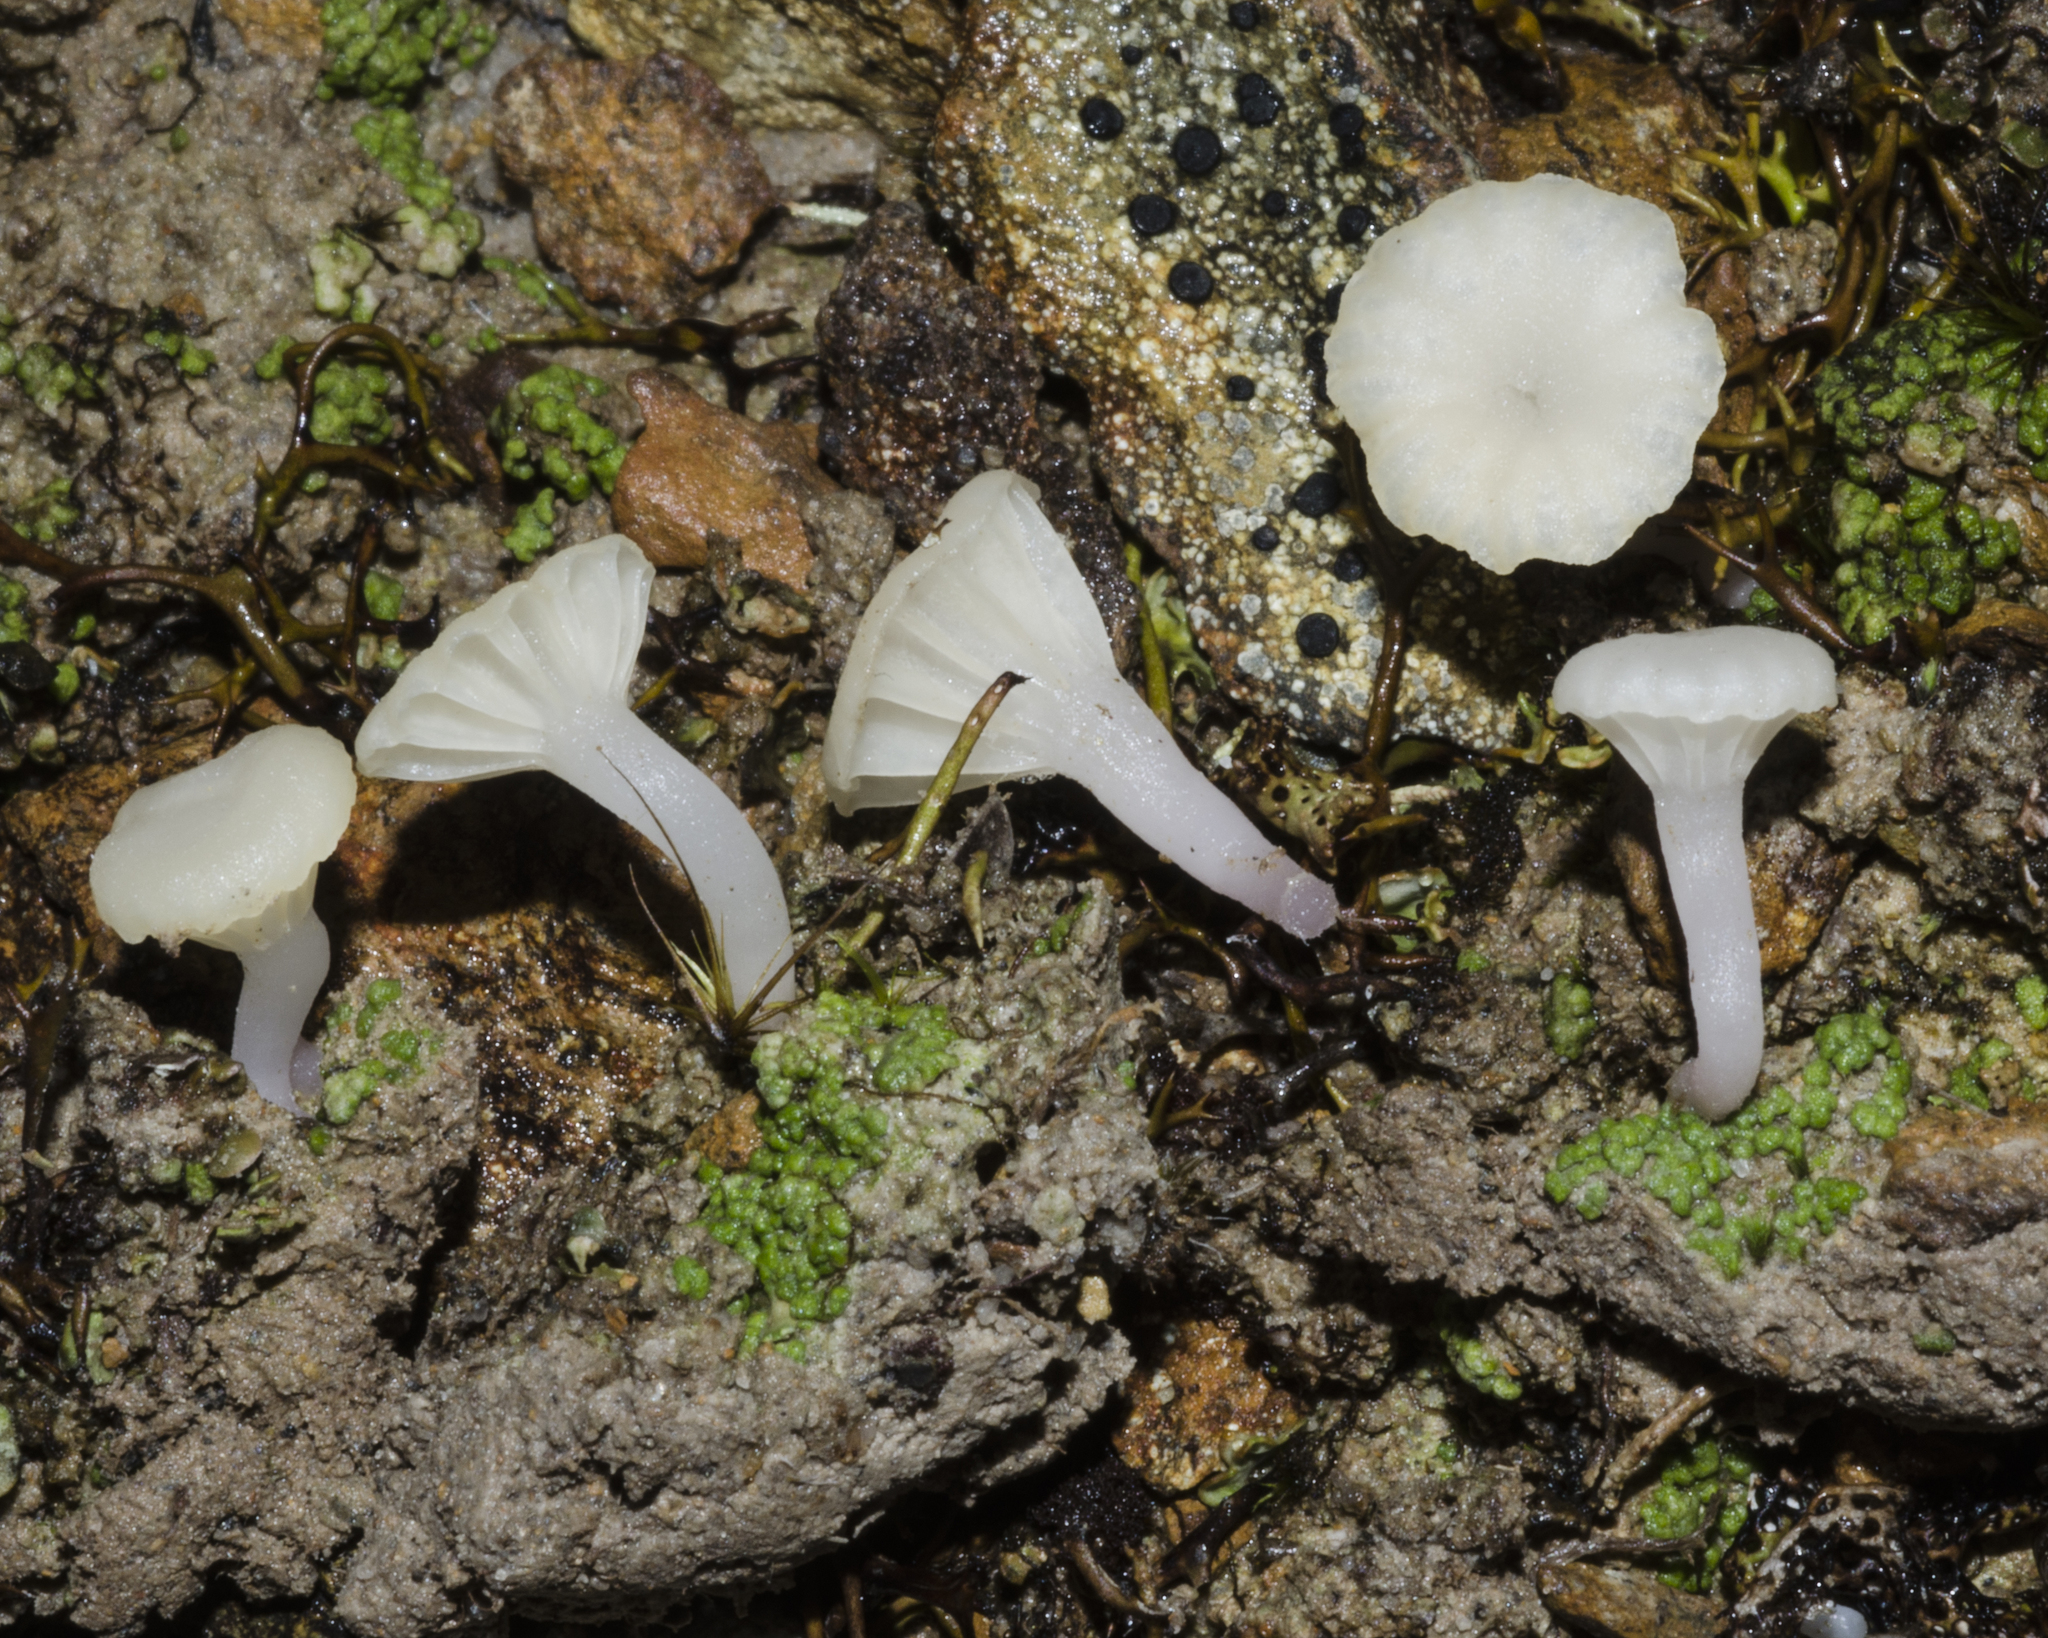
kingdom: Fungi
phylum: Basidiomycota
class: Agaricomycetes
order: Agaricales
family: Hygrophoraceae
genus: Lichenomphalia
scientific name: Lichenomphalia
